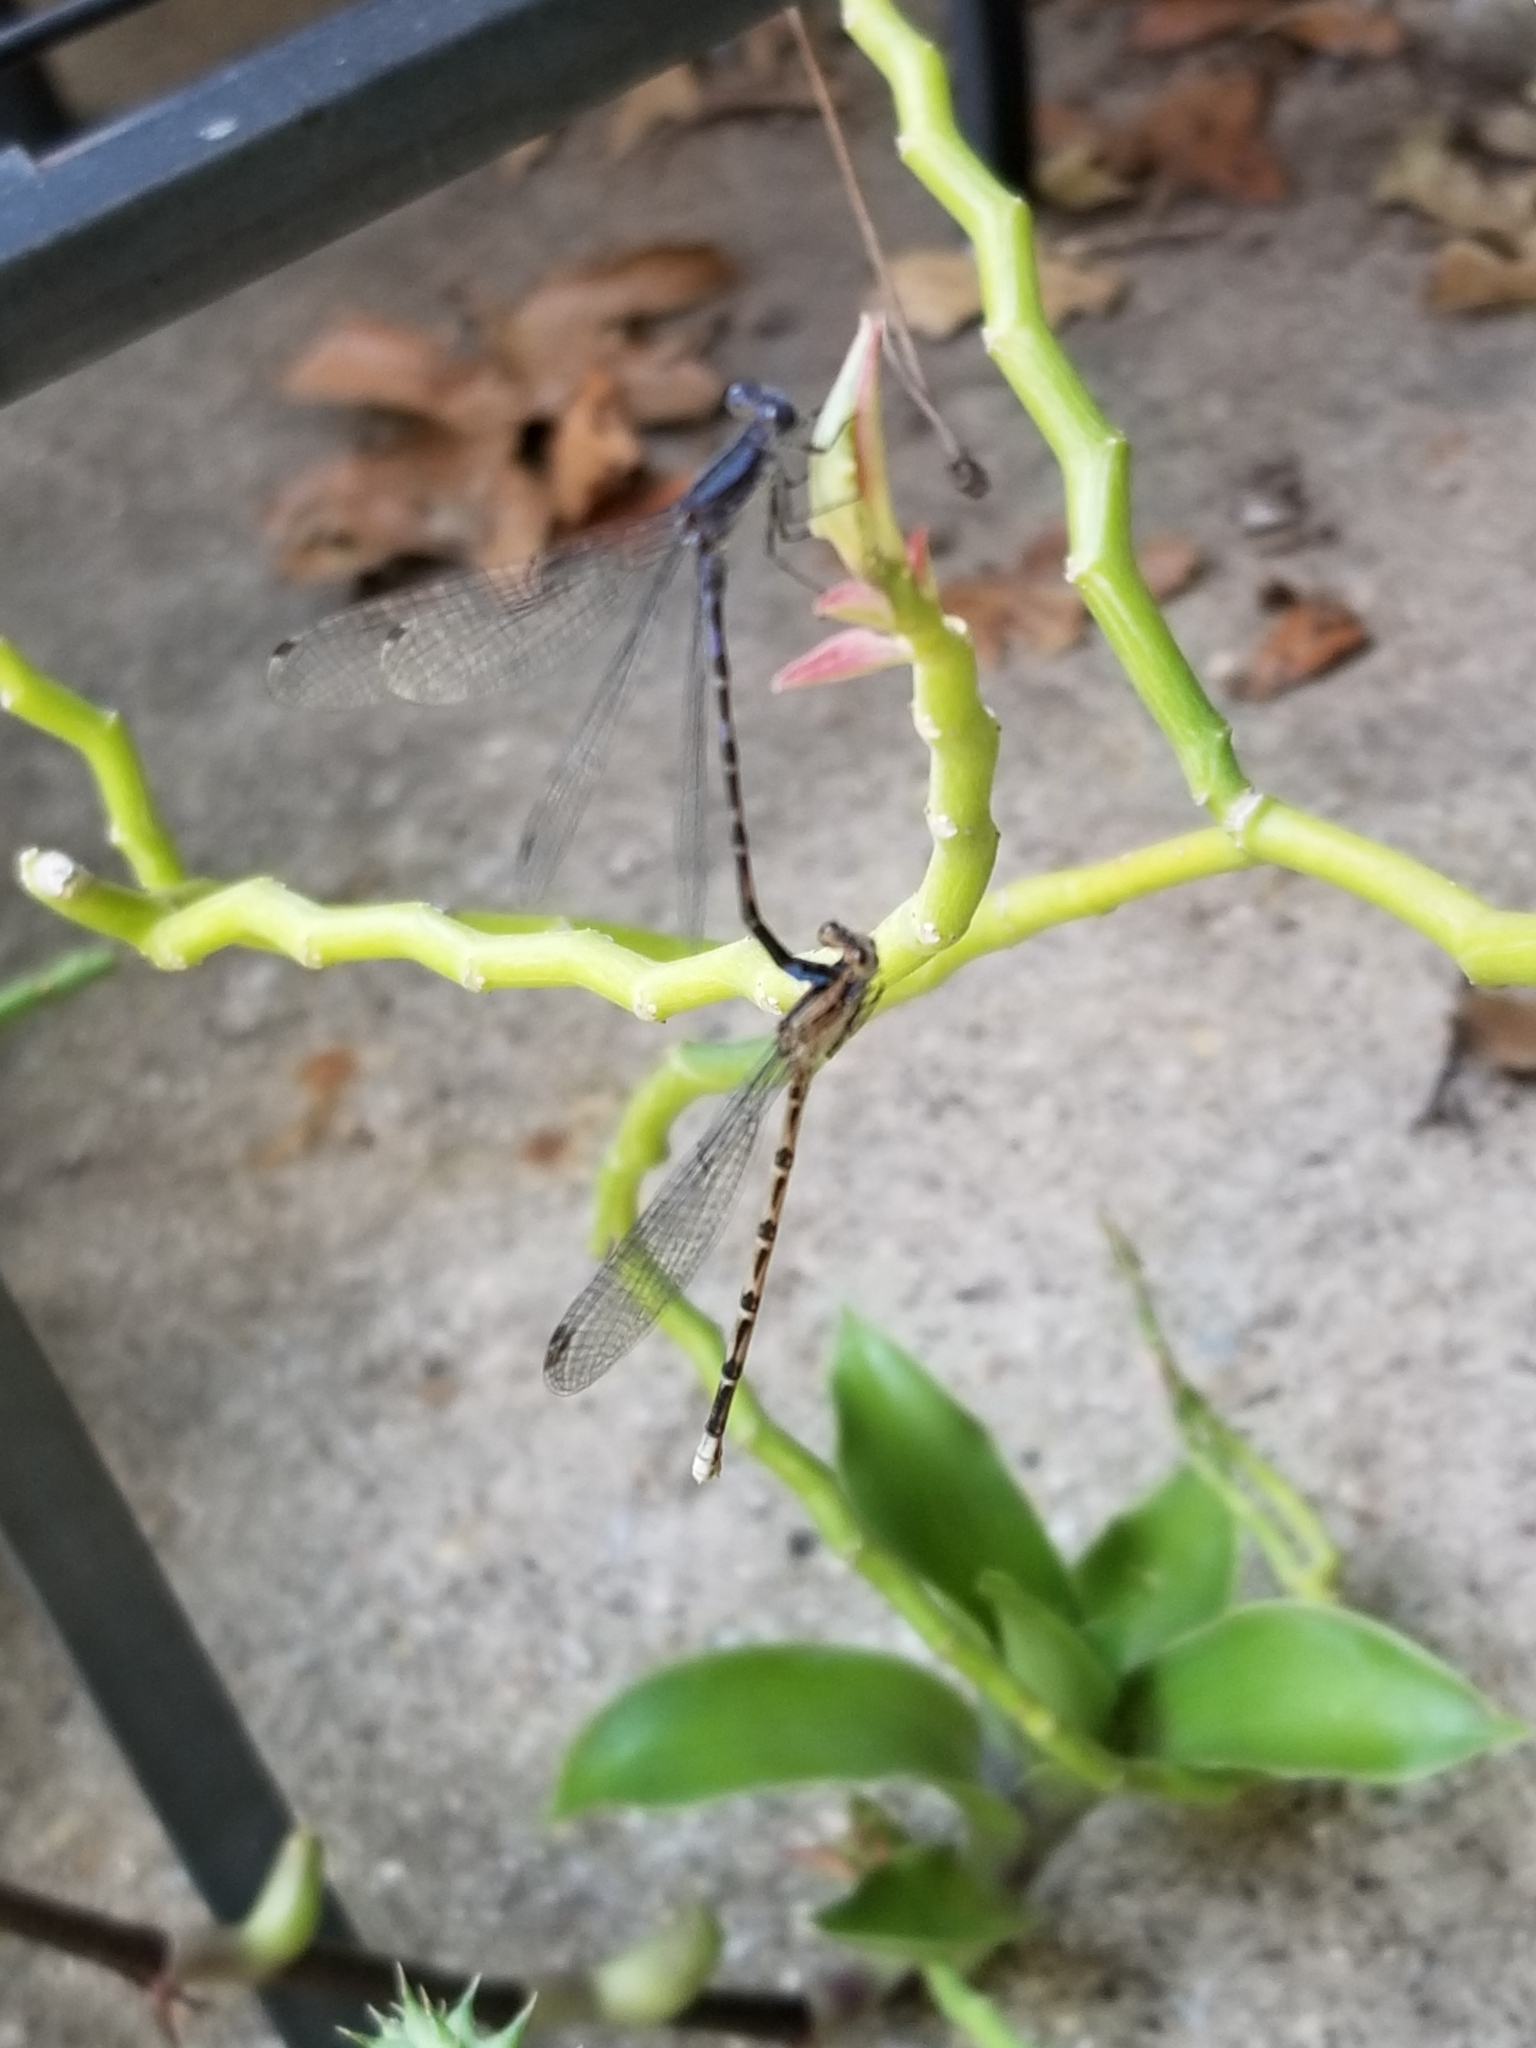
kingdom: Animalia
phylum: Arthropoda
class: Insecta
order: Odonata
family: Coenagrionidae
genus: Argia
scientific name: Argia immunda
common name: Kiowa dancer
